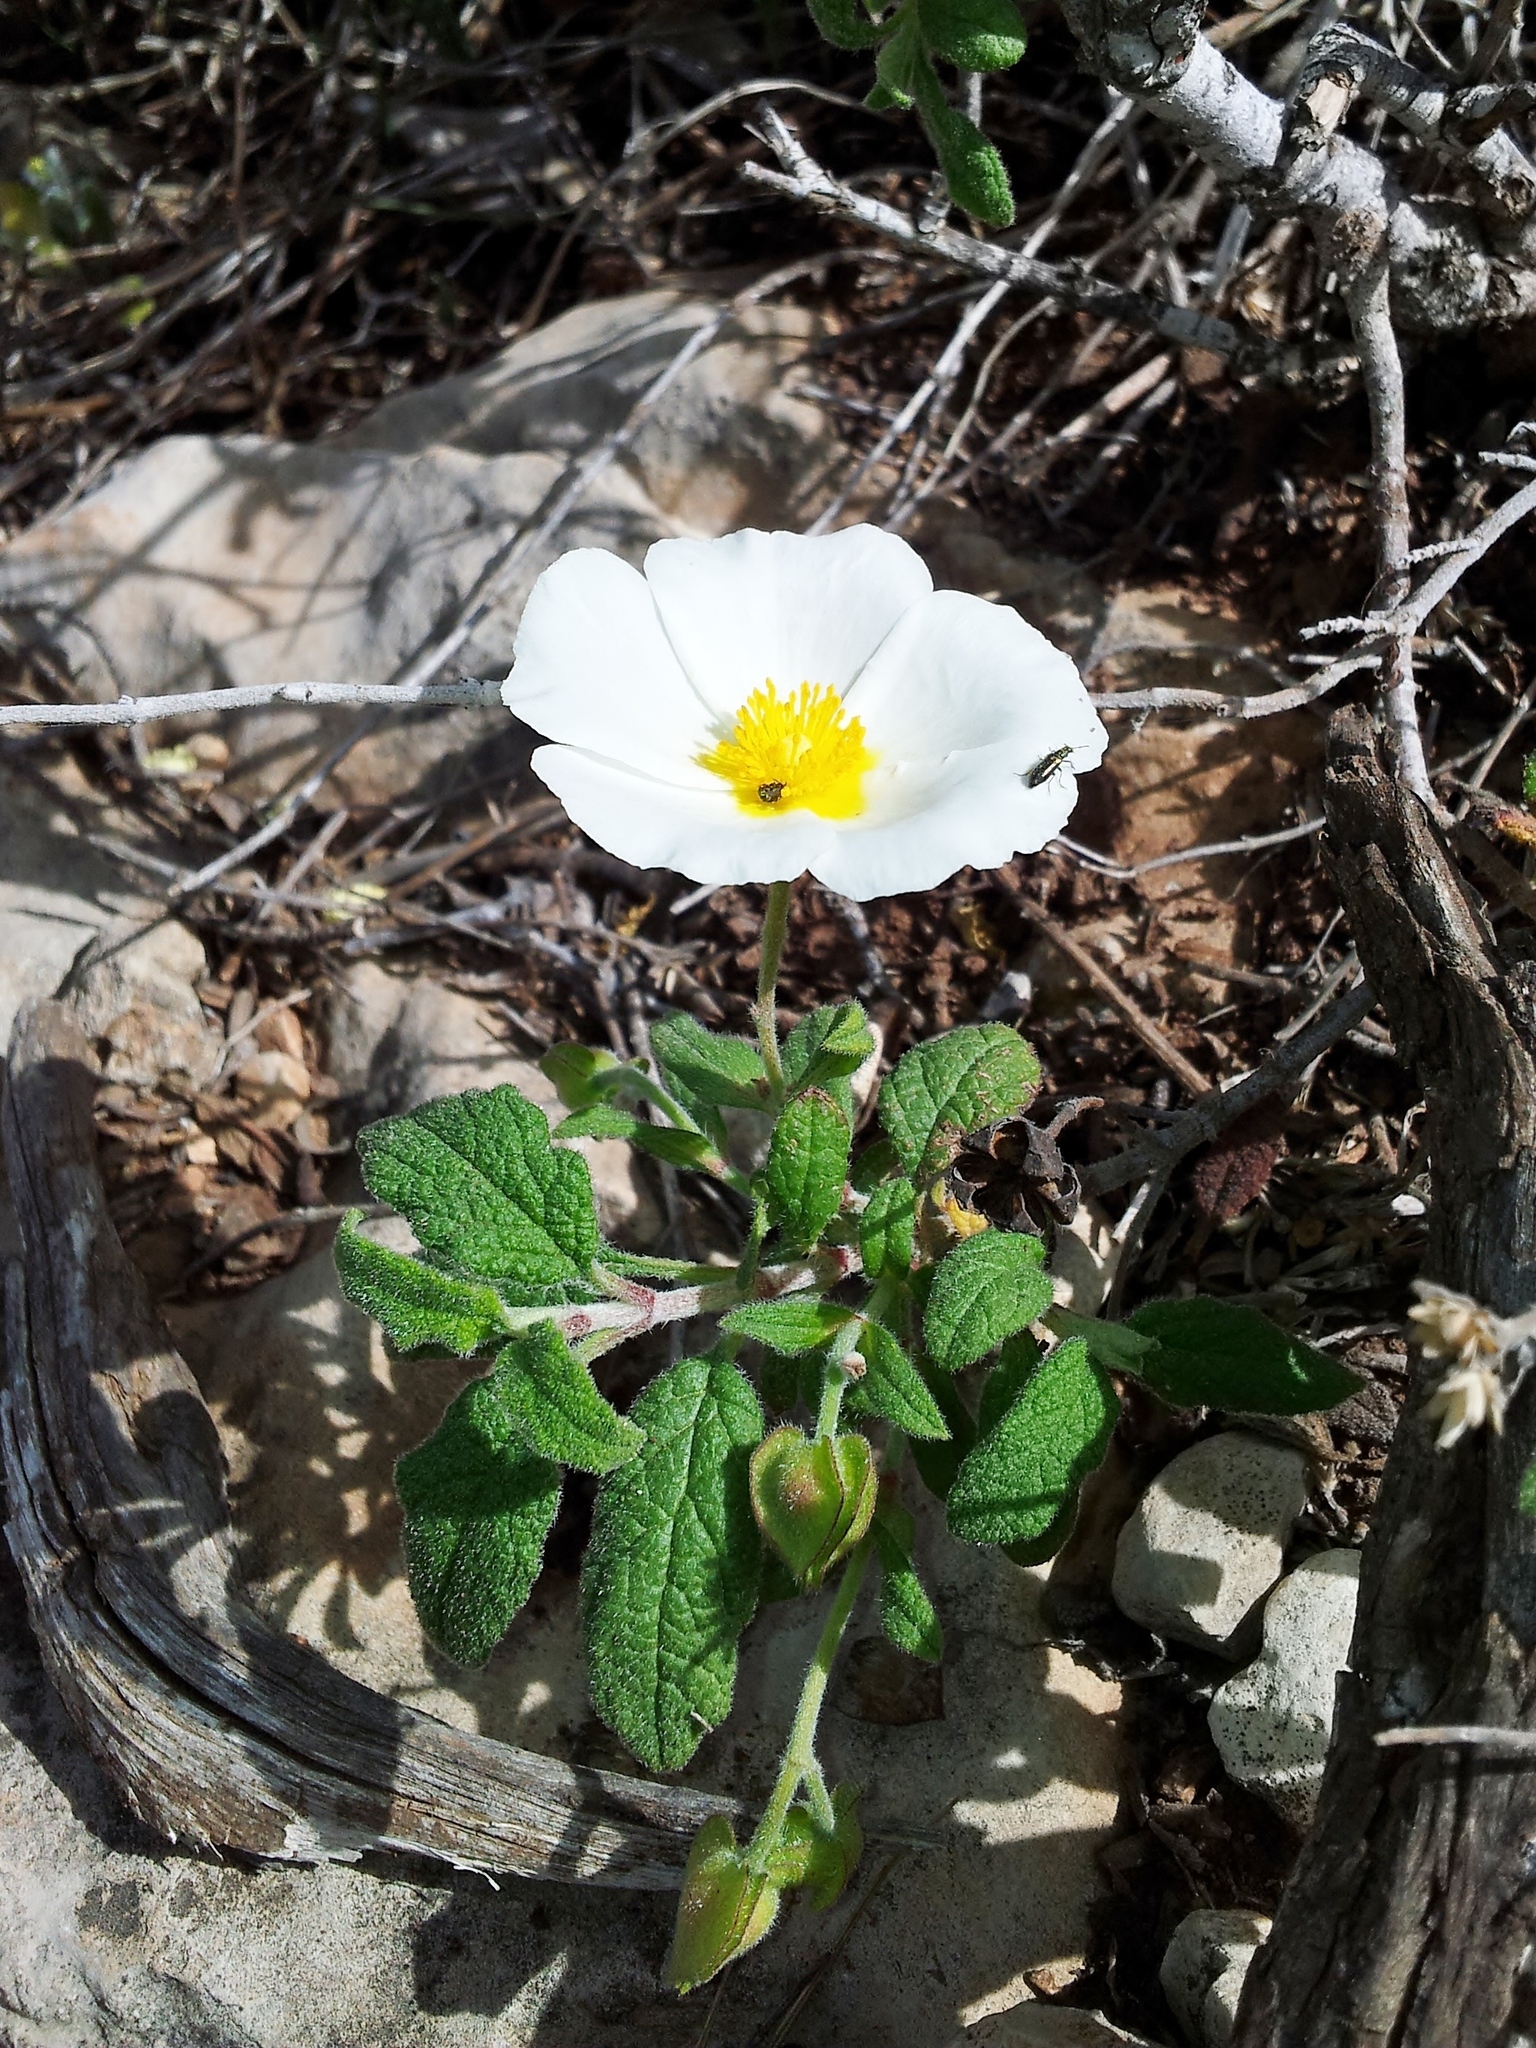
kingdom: Plantae
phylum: Tracheophyta
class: Magnoliopsida
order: Malvales
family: Cistaceae
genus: Cistus
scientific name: Cistus salviifolius
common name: Salvia cistus
